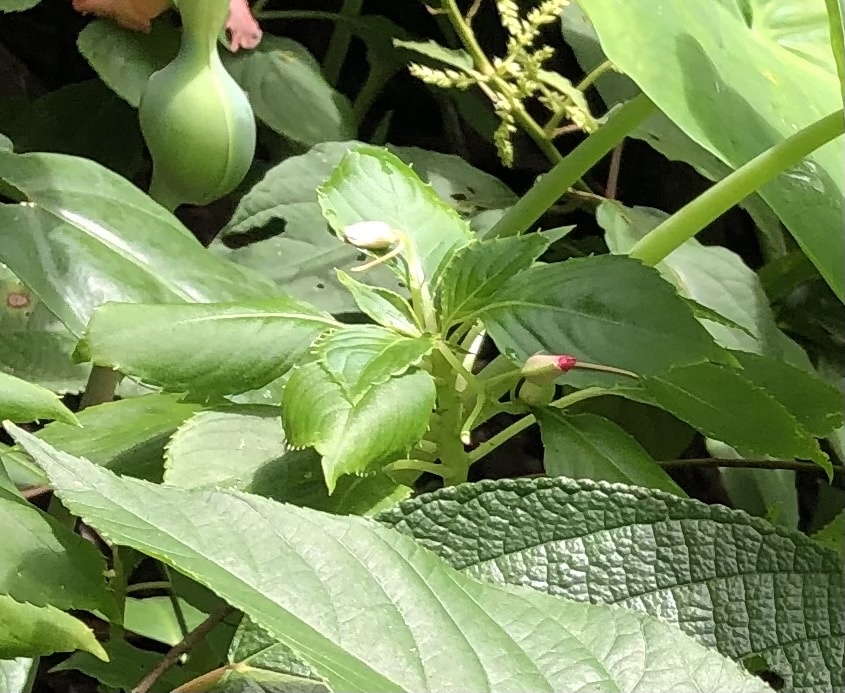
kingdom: Plantae
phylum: Tracheophyta
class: Magnoliopsida
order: Ericales
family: Balsaminaceae
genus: Impatiens
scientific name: Impatiens walleriana
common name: Buzzy lizzy
